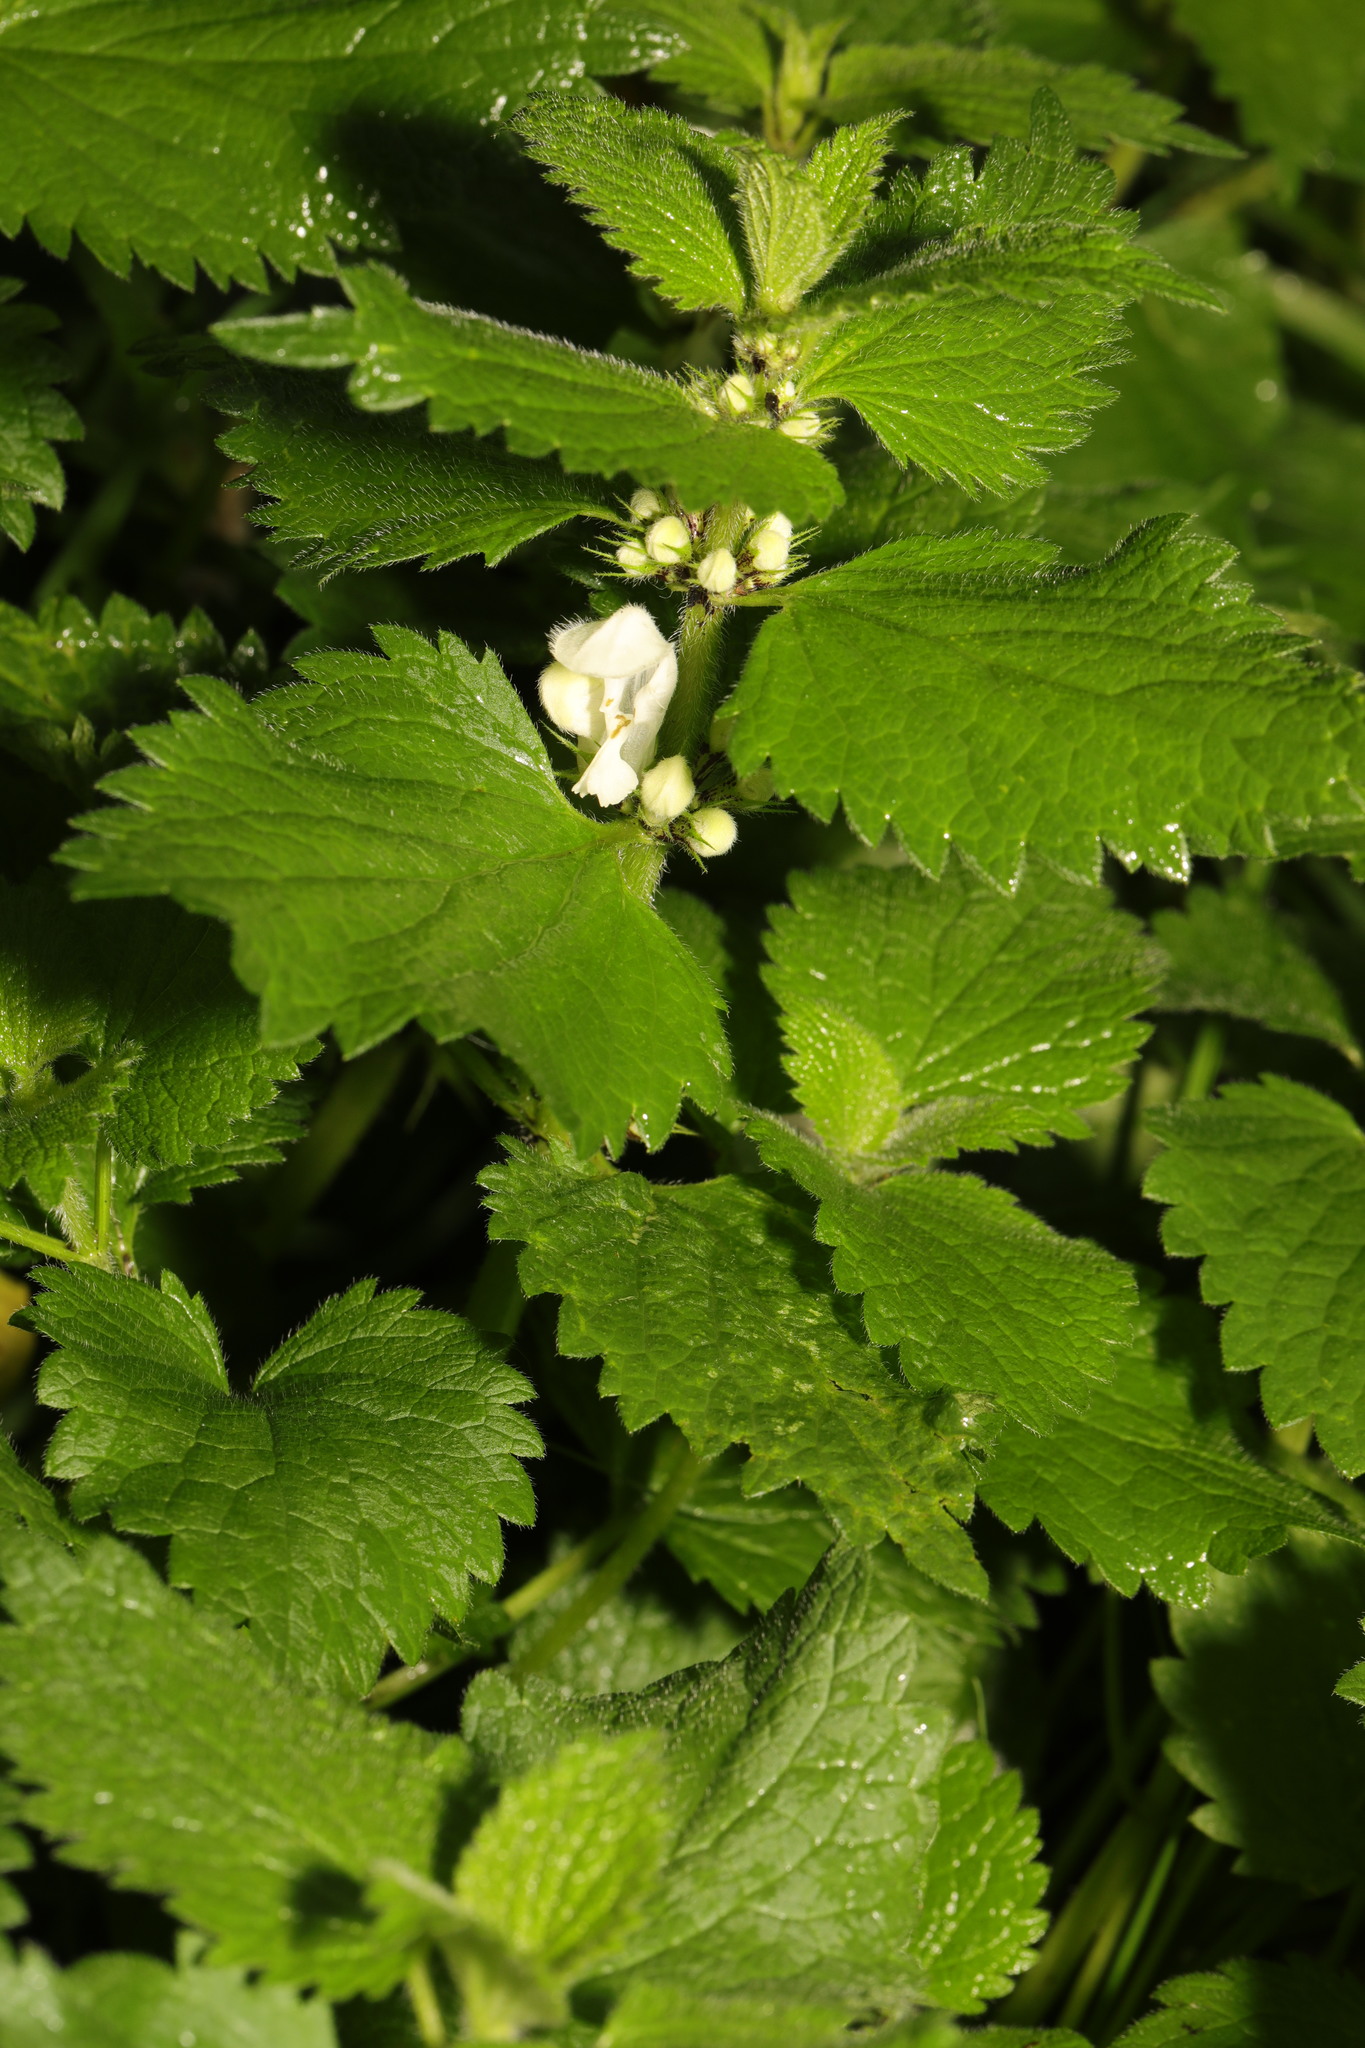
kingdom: Plantae
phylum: Tracheophyta
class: Magnoliopsida
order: Lamiales
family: Lamiaceae
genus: Lamium
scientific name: Lamium album
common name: White dead-nettle
